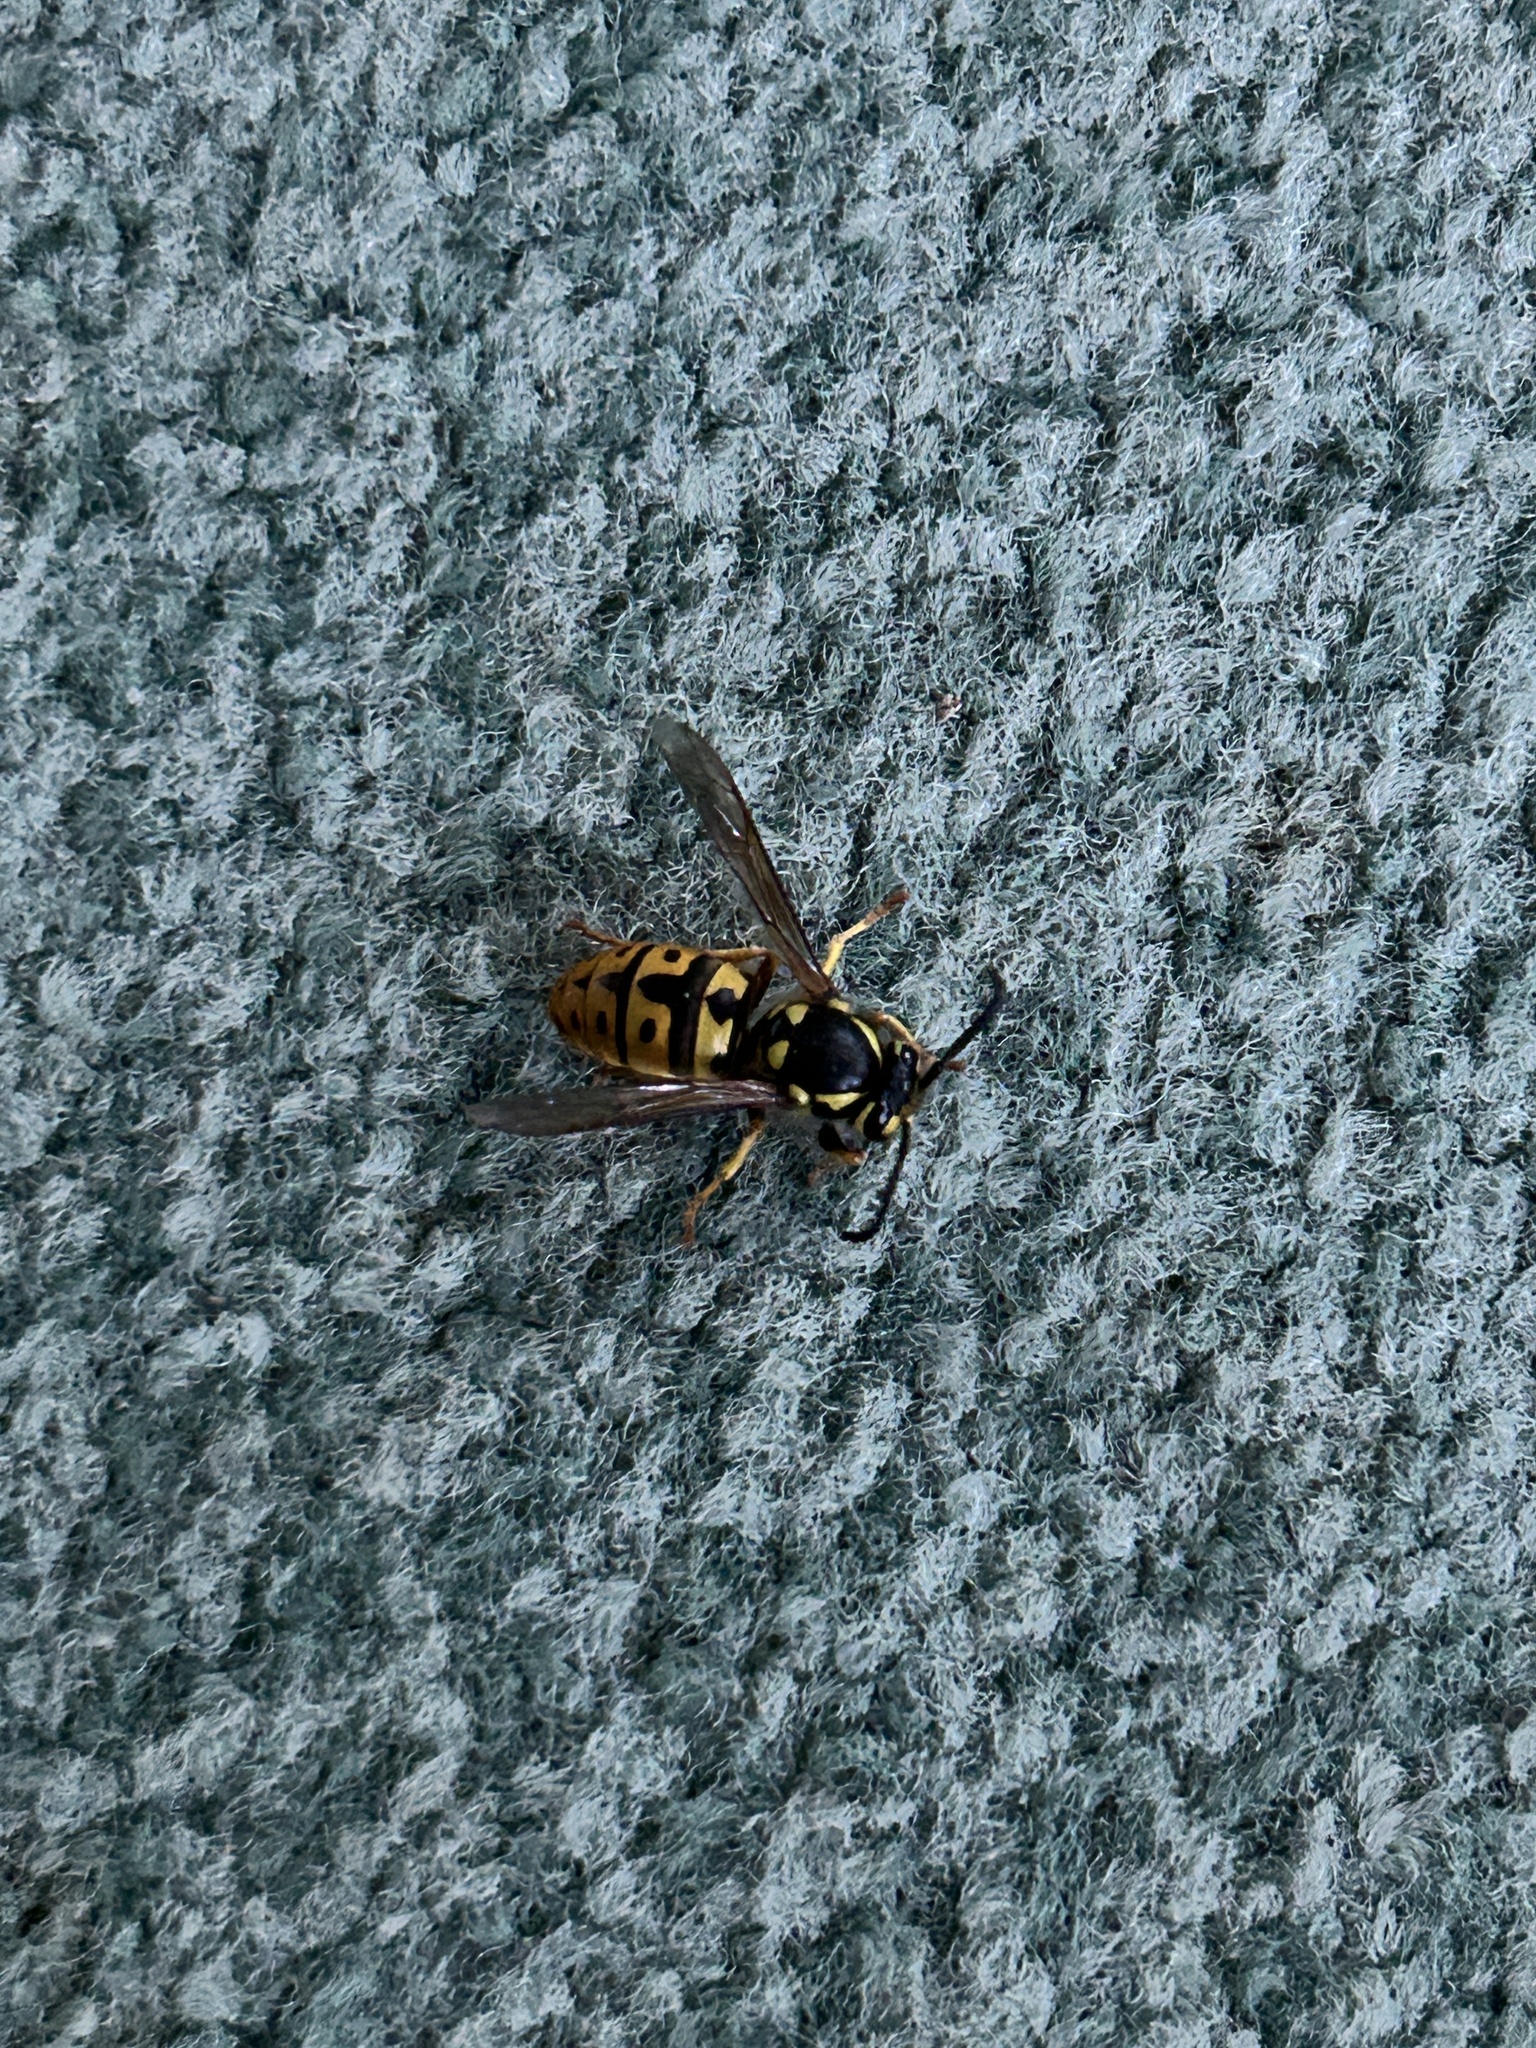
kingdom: Animalia
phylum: Arthropoda
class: Insecta
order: Hymenoptera
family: Vespidae
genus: Vespula
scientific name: Vespula germanica
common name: German wasp
